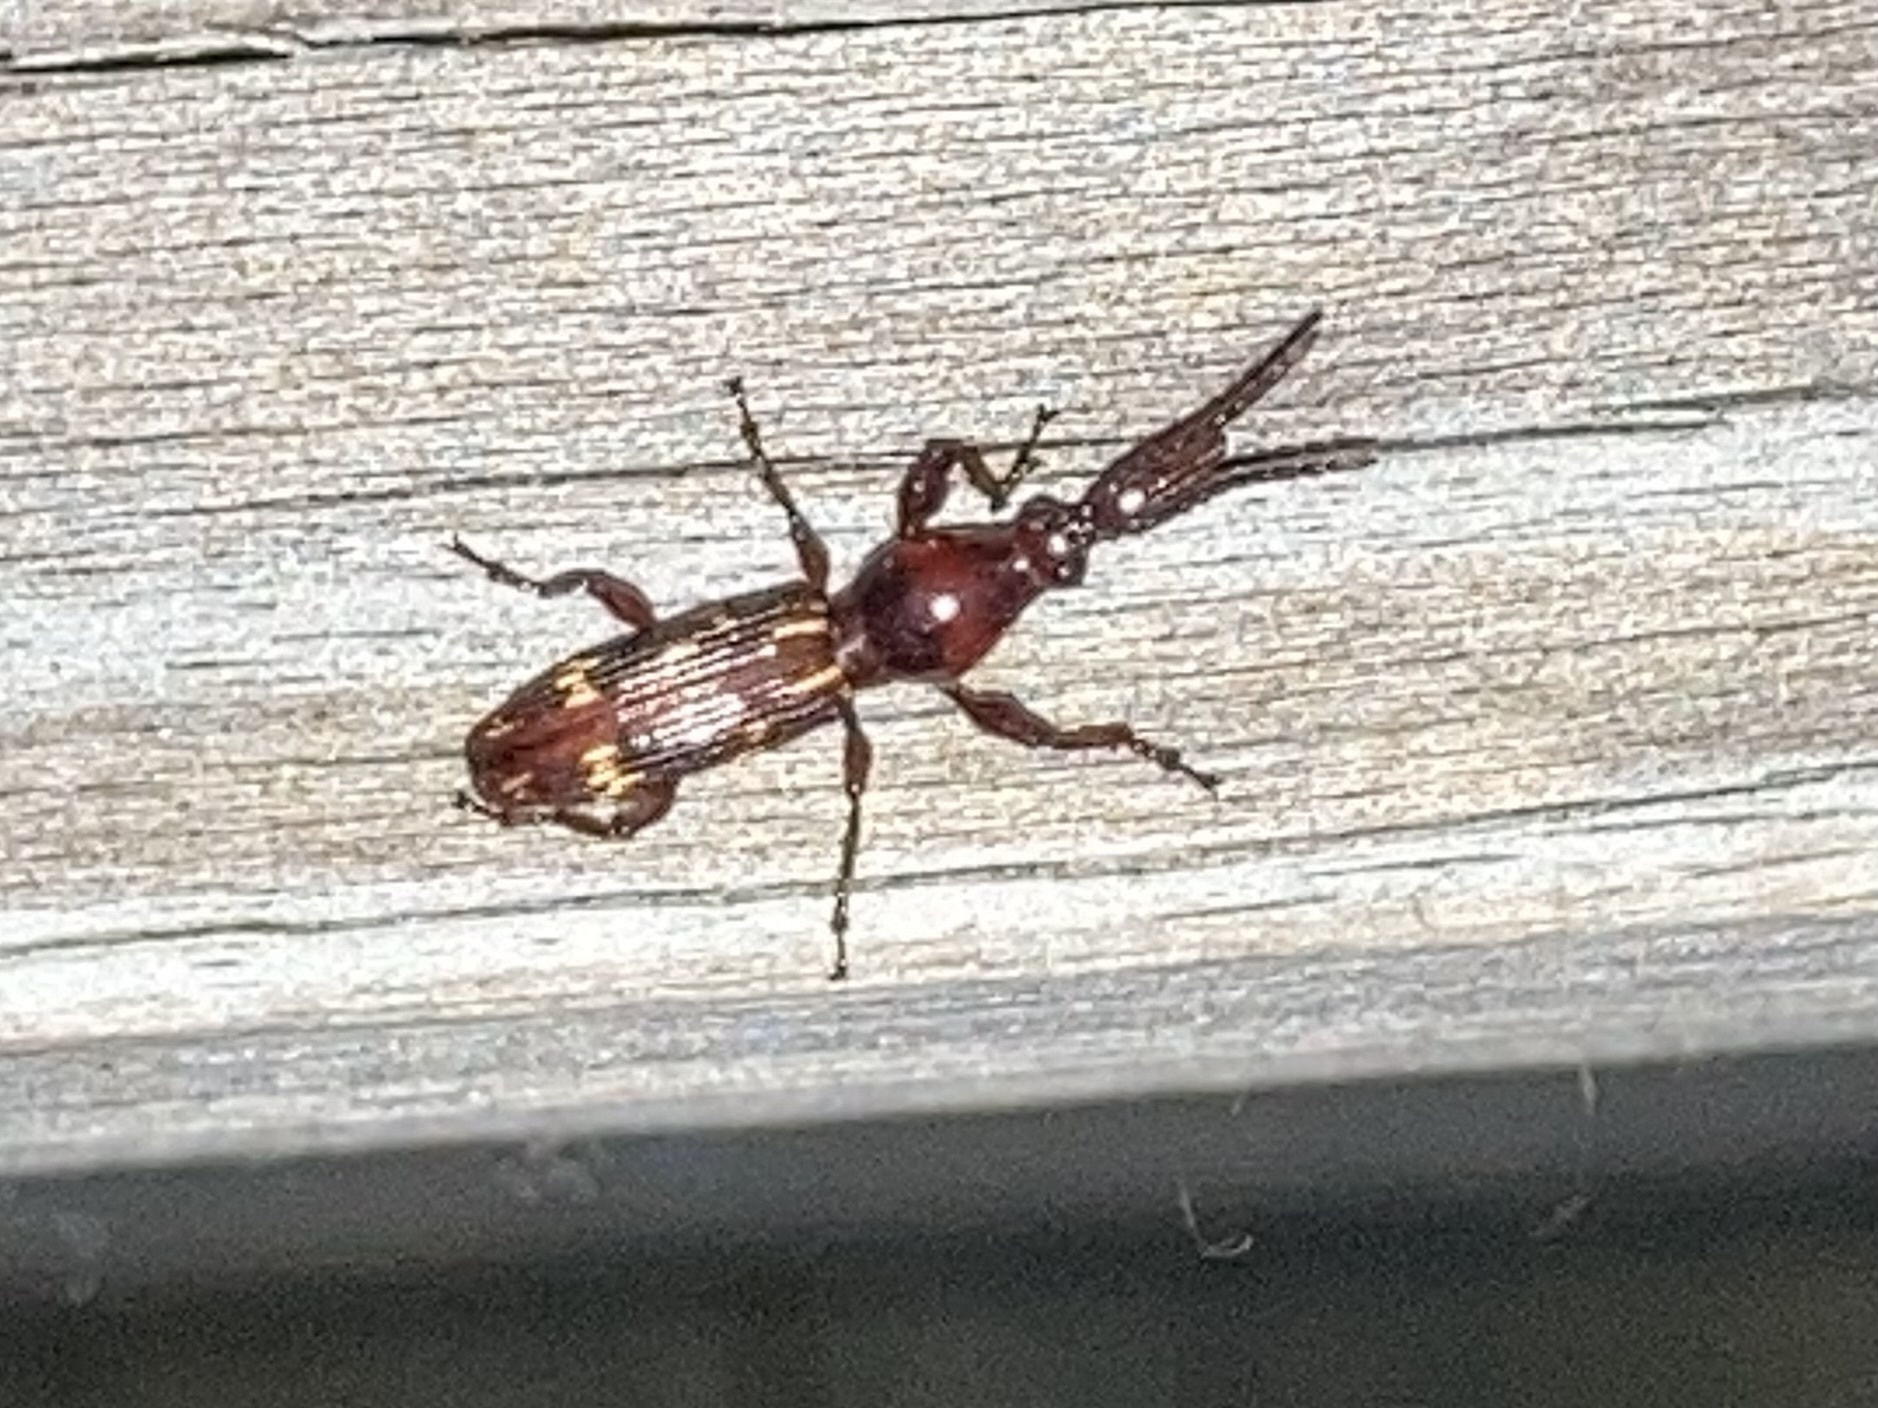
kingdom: Animalia
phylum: Arthropoda
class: Insecta
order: Coleoptera
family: Brentidae
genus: Arrenodes
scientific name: Arrenodes minutus
